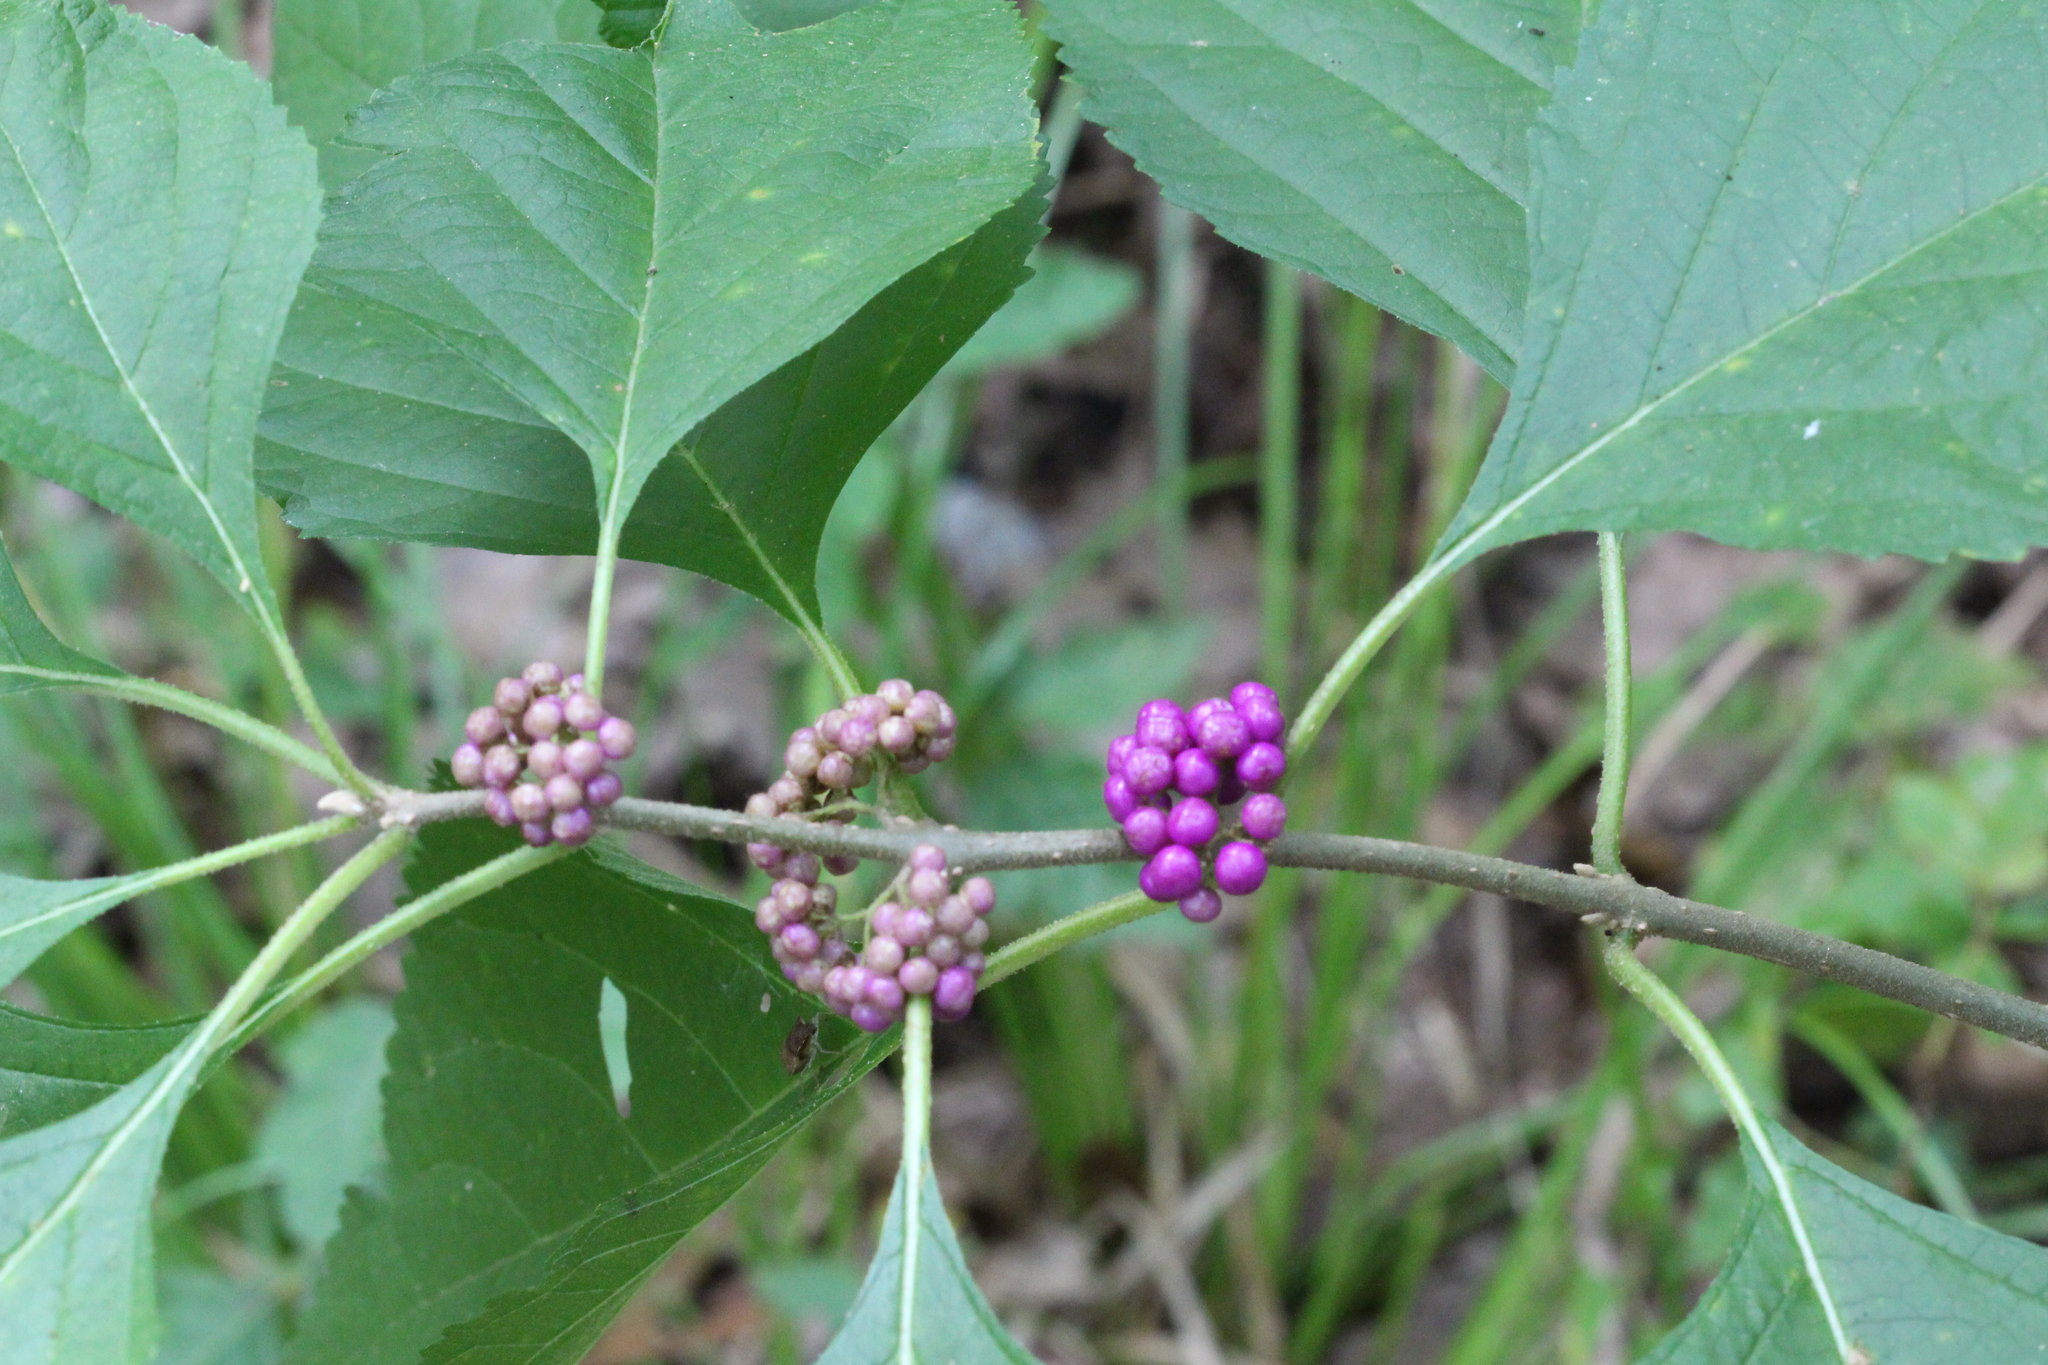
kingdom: Plantae
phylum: Tracheophyta
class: Magnoliopsida
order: Lamiales
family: Lamiaceae
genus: Callicarpa
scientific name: Callicarpa americana
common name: American beautyberry
